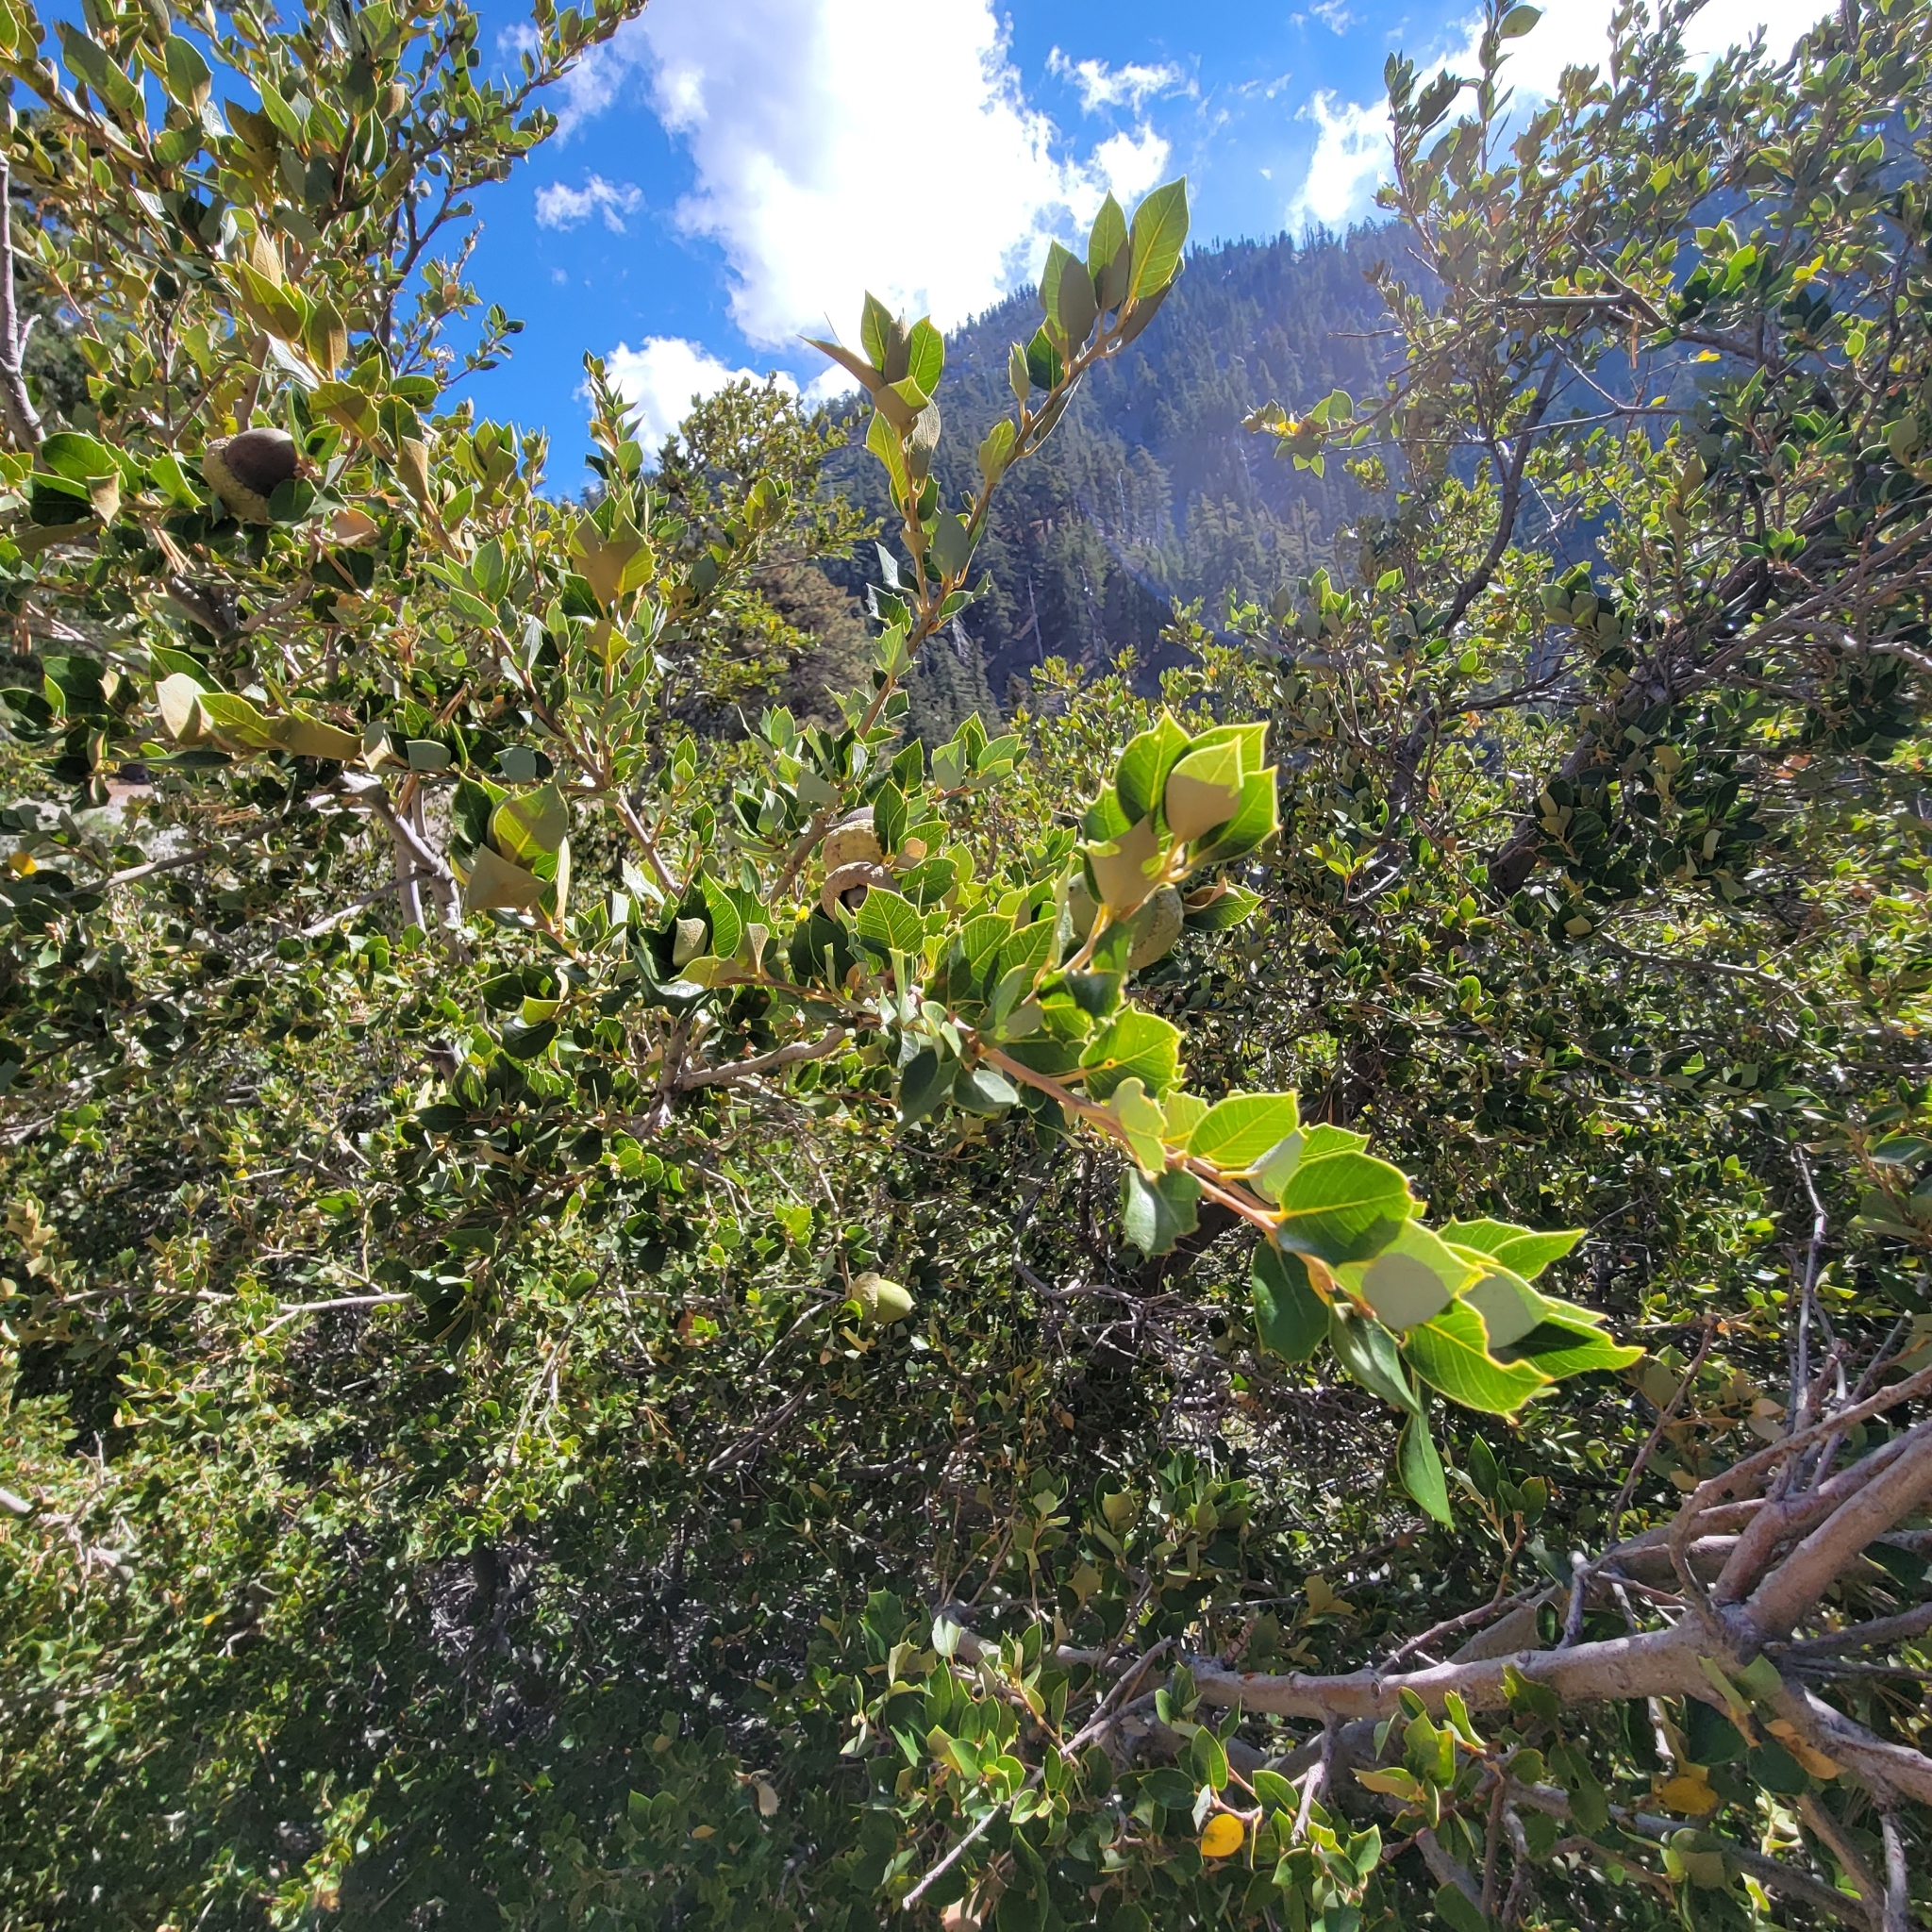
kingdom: Plantae
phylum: Tracheophyta
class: Magnoliopsida
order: Fagales
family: Fagaceae
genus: Quercus
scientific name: Quercus chrysolepis
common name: Canyon live oak
